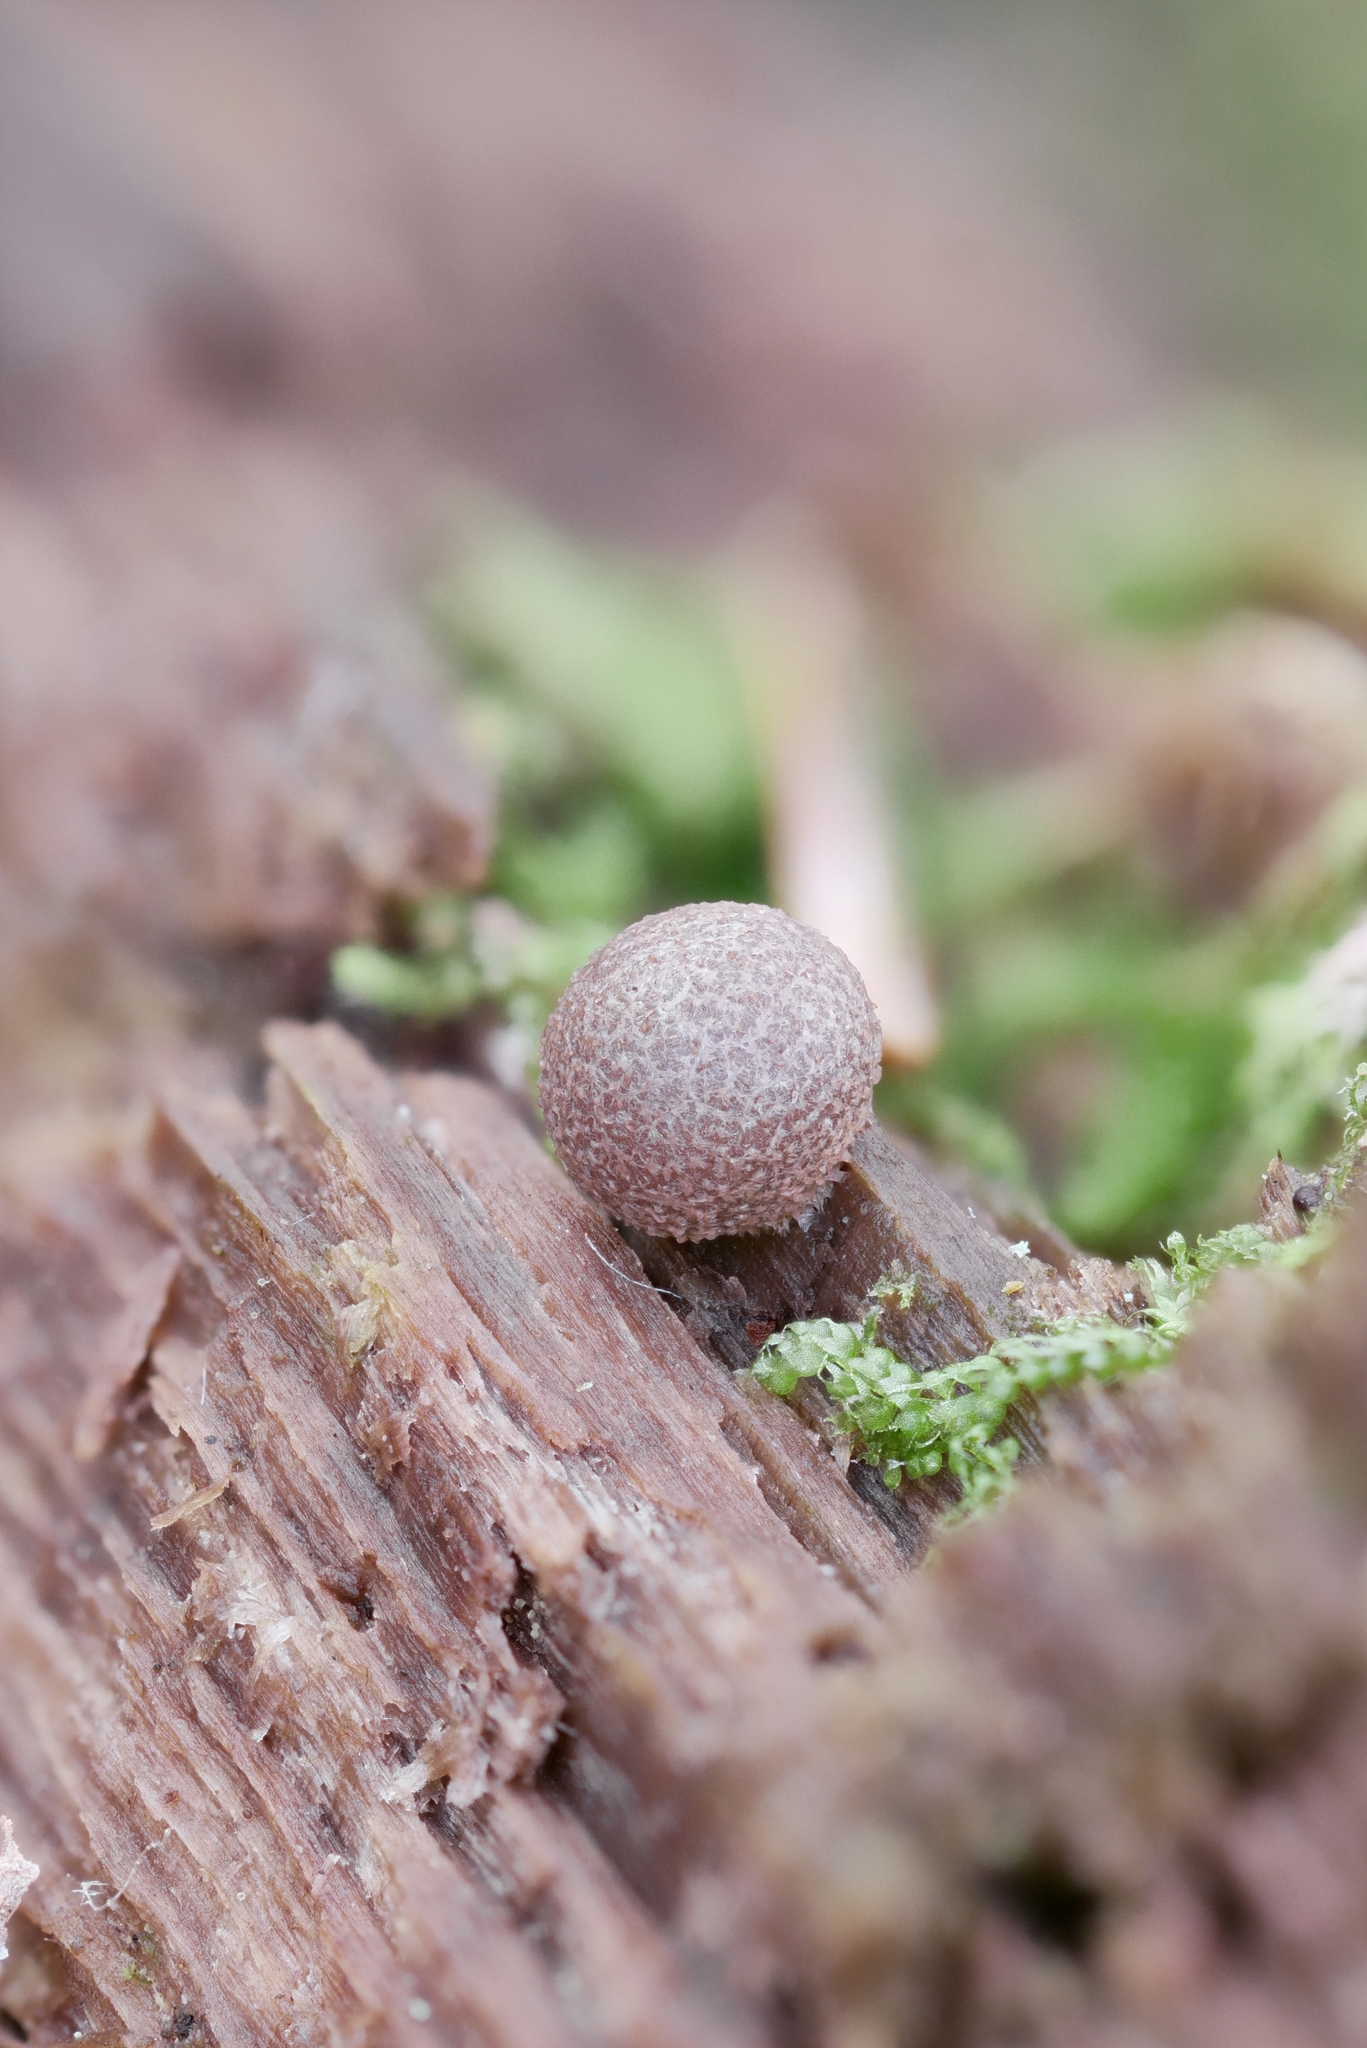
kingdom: Protozoa
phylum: Mycetozoa
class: Myxomycetes
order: Cribrariales
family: Tubiferaceae
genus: Lycogala
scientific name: Lycogala exiguum
